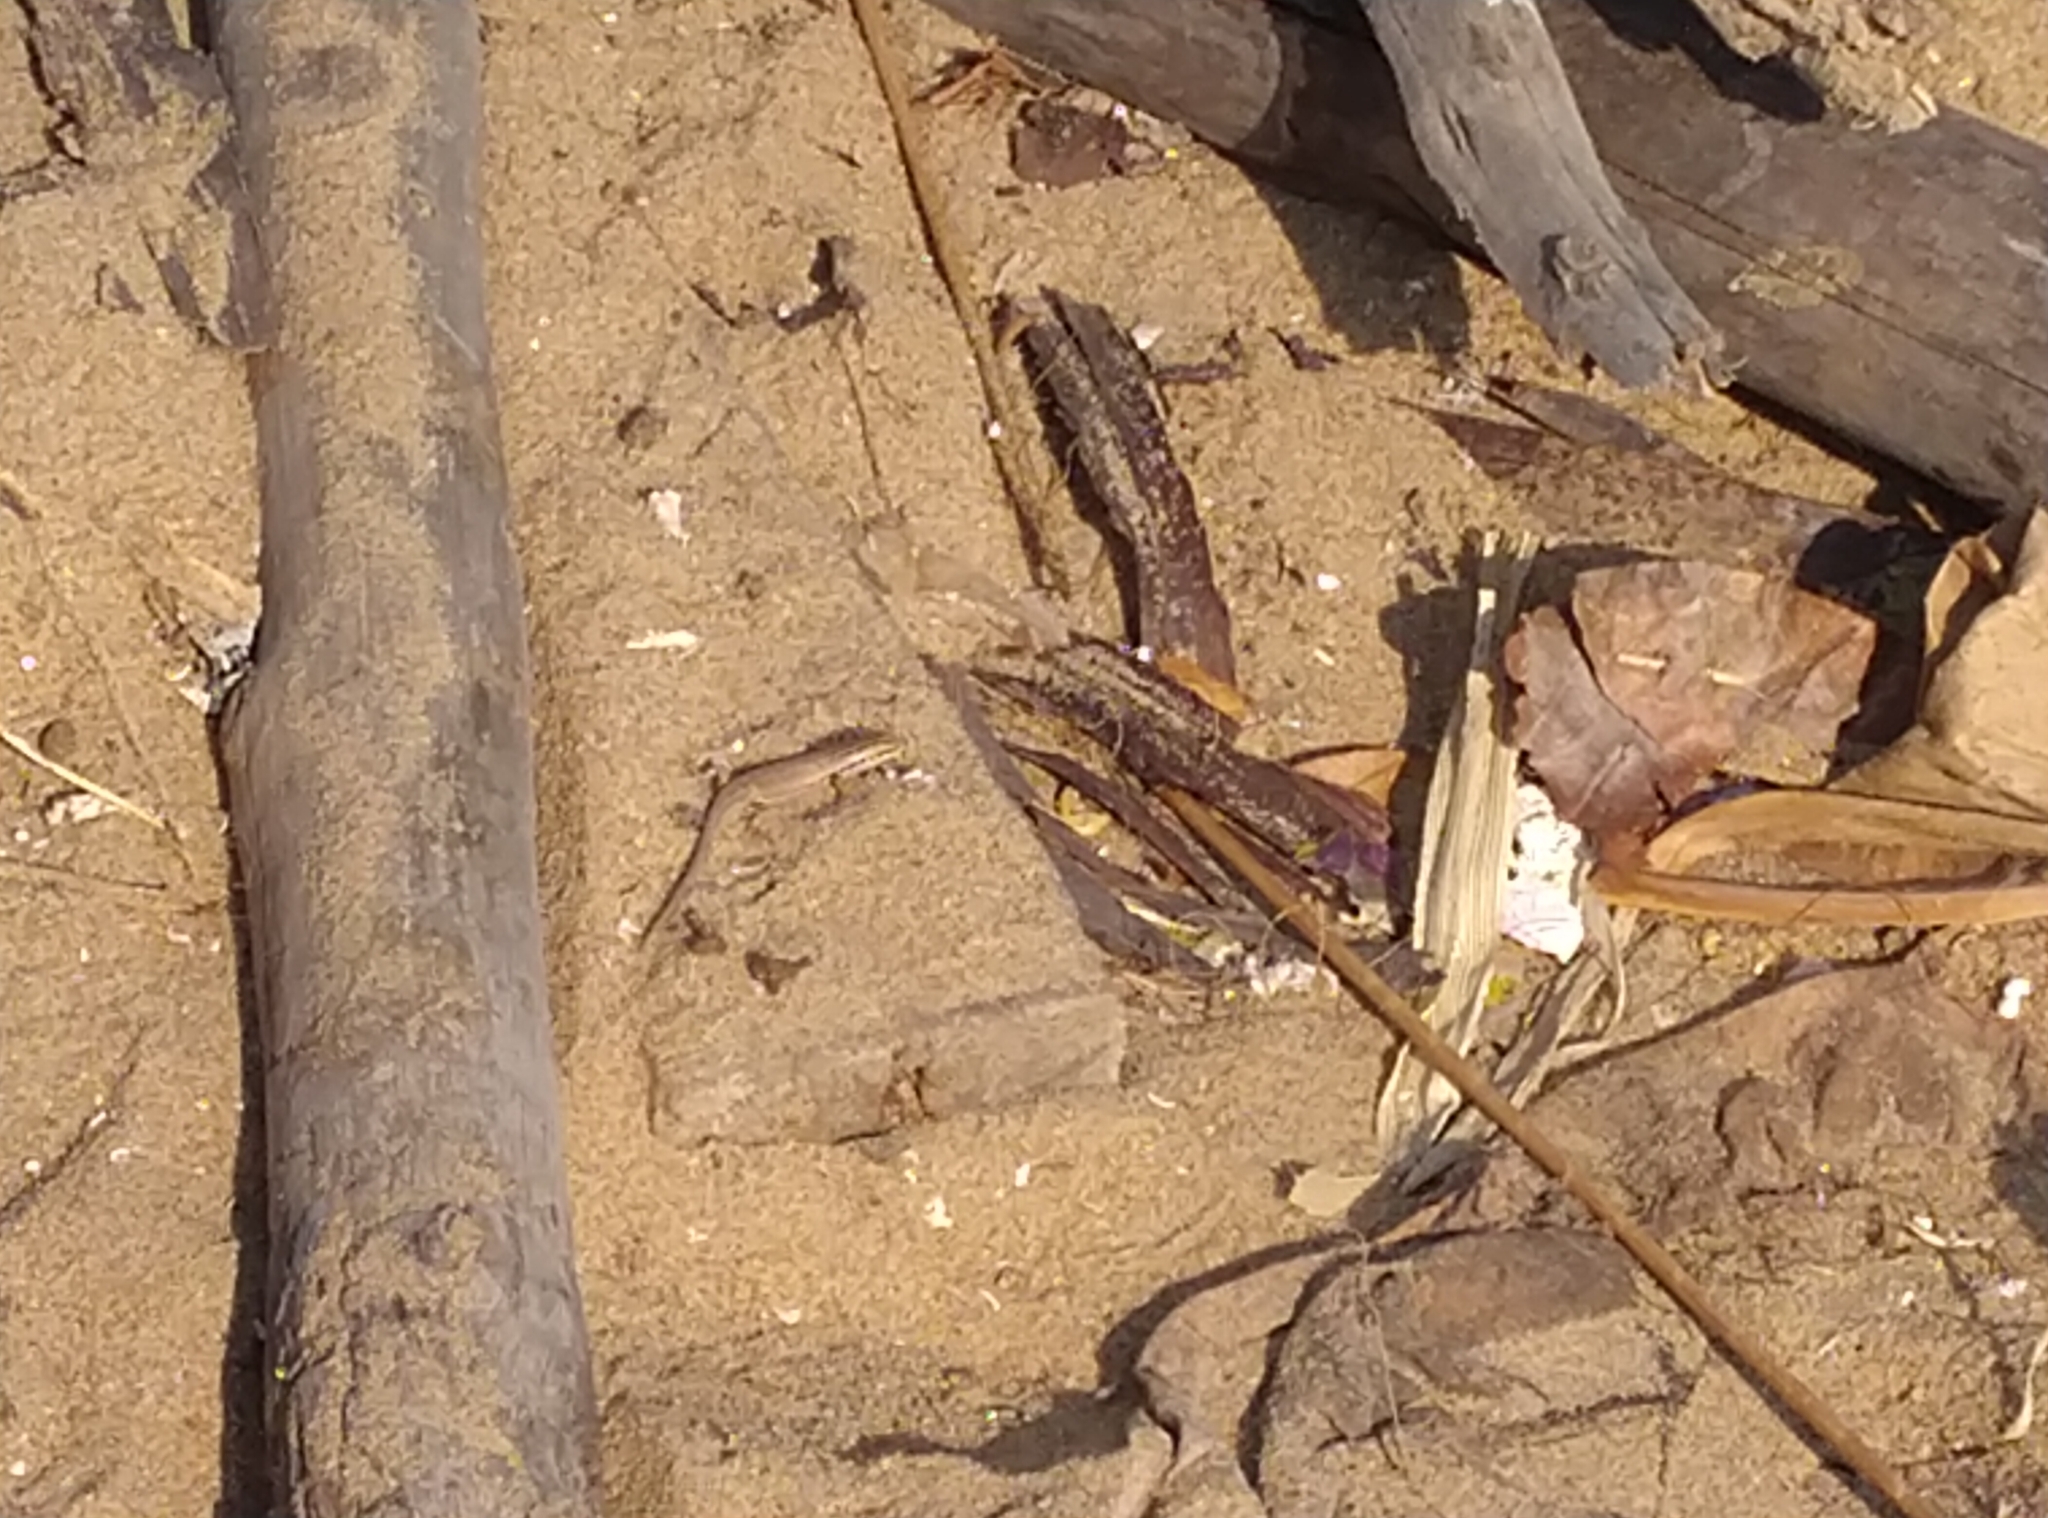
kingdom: Animalia
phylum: Chordata
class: Squamata
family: Scincidae
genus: Eutropis
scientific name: Eutropis bibronii
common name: Bibron's skink
